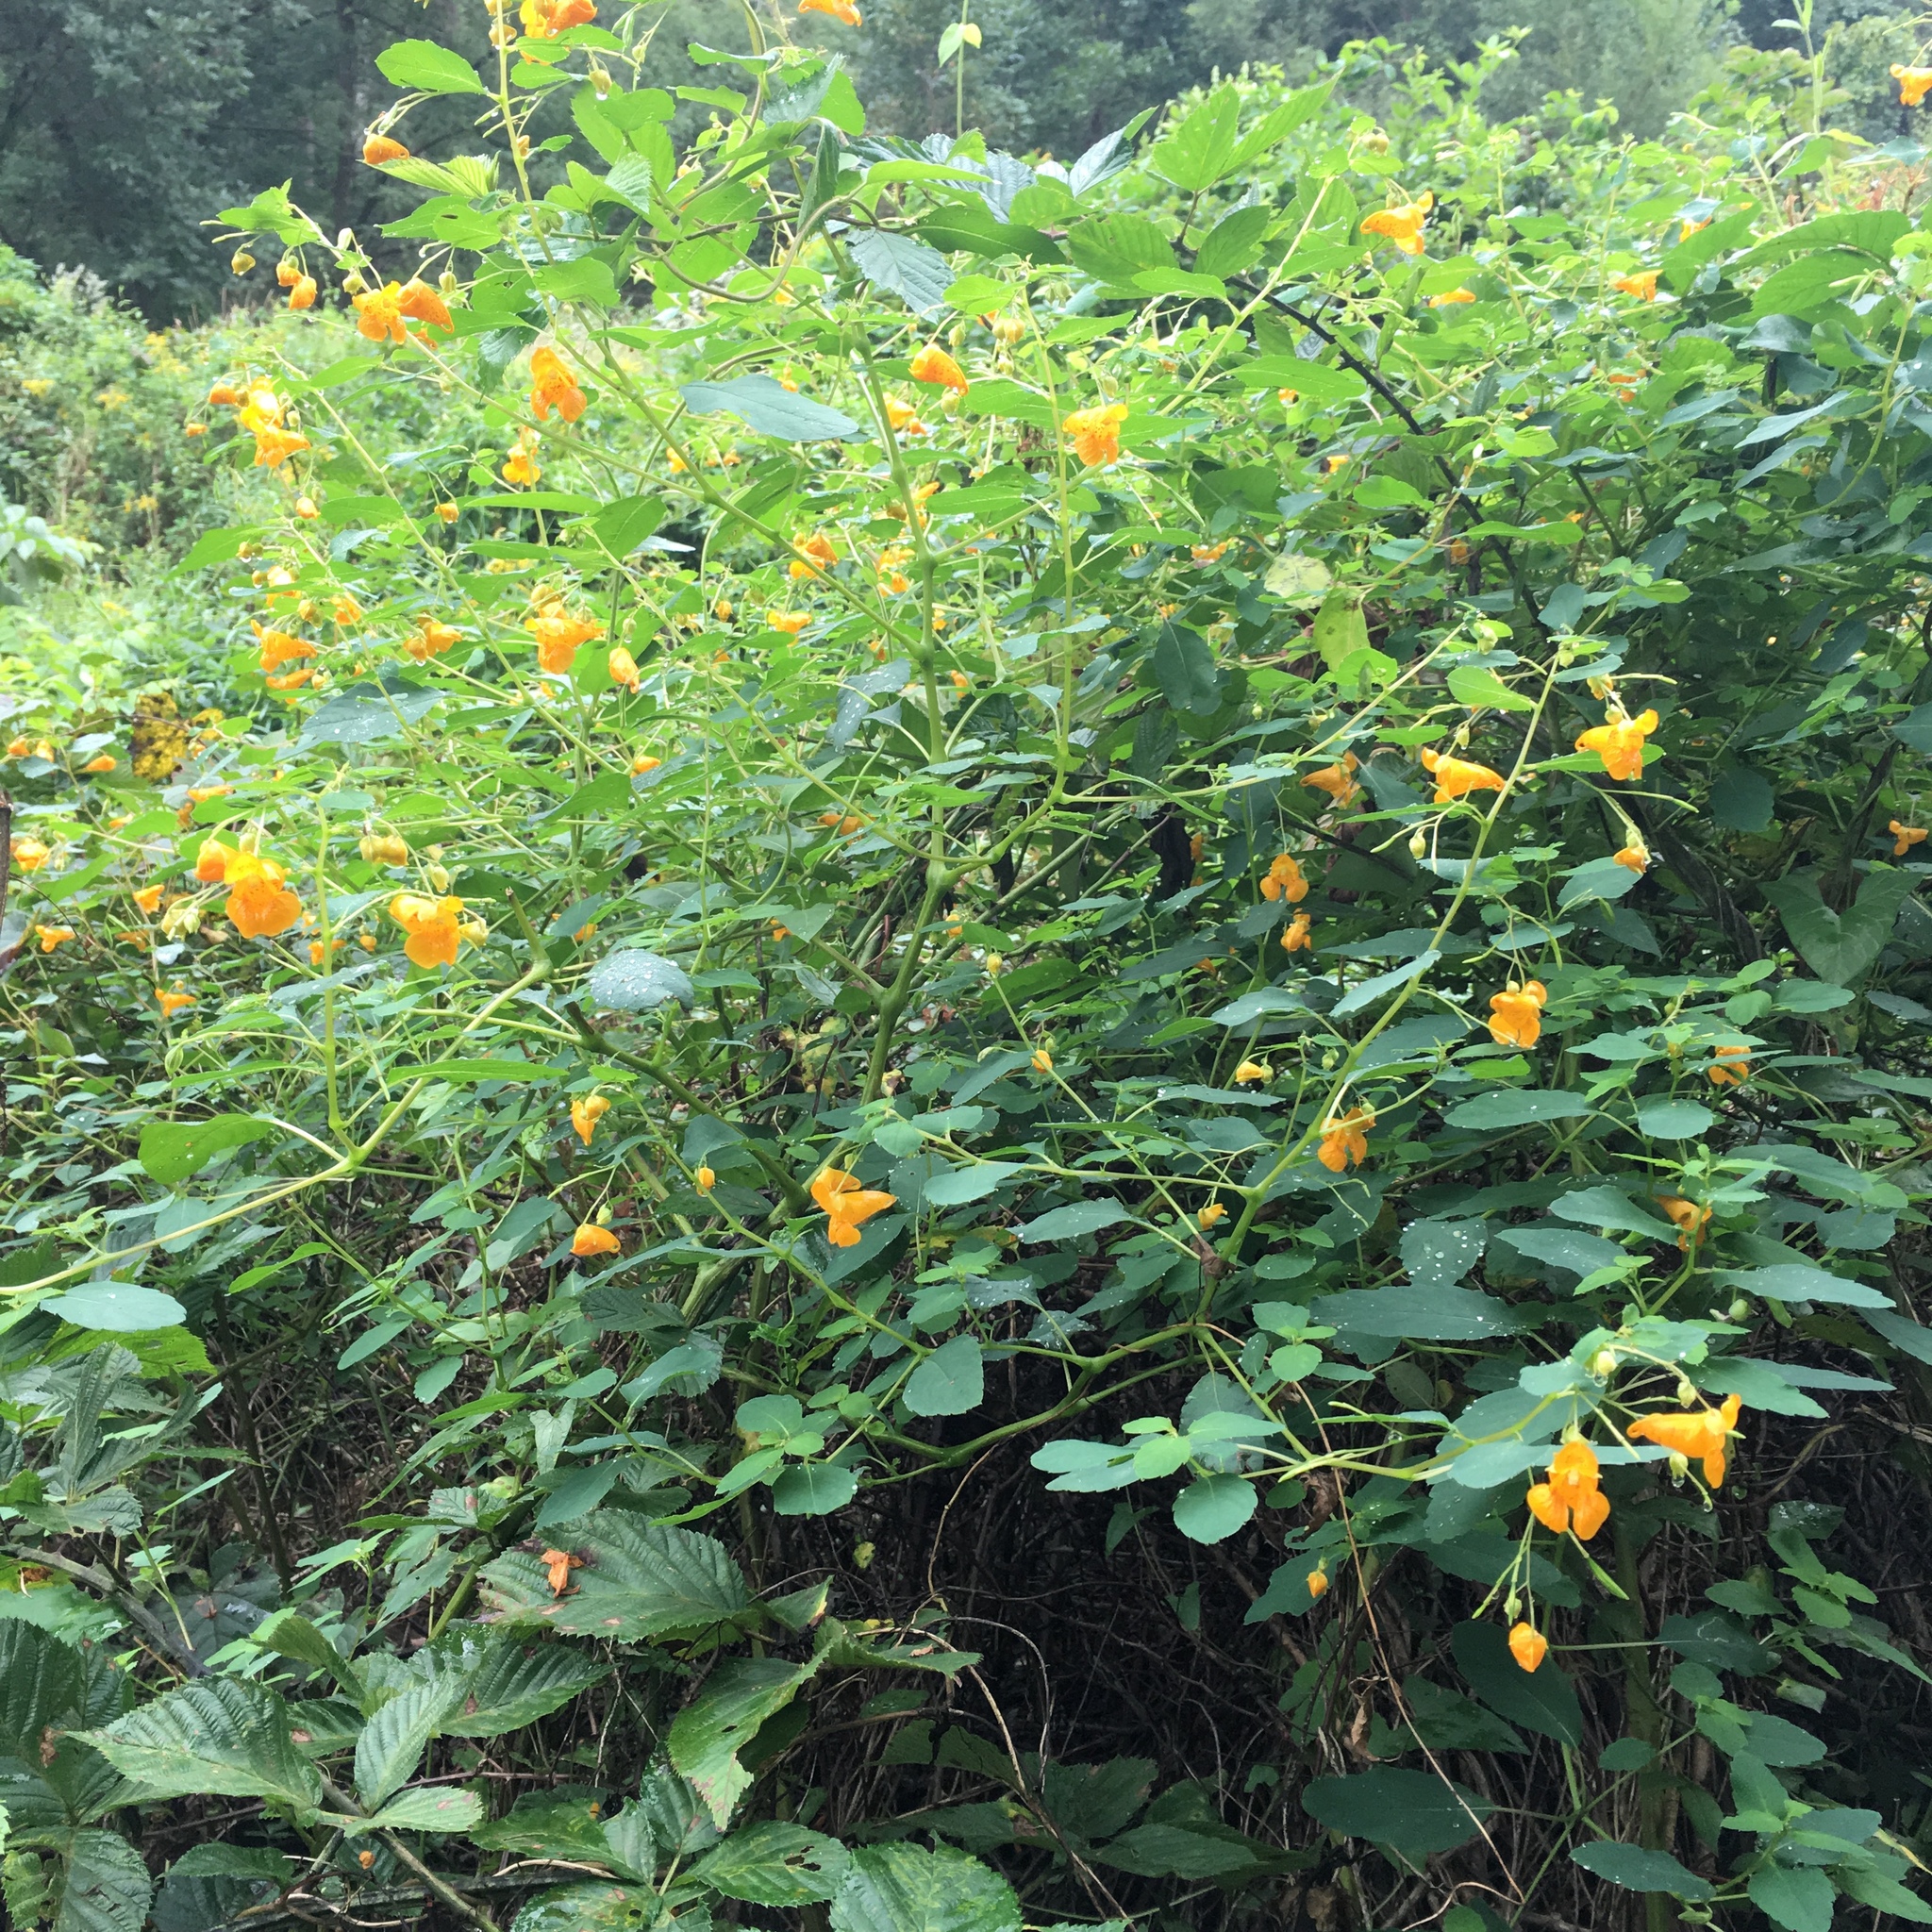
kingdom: Plantae
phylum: Tracheophyta
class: Magnoliopsida
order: Ericales
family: Balsaminaceae
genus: Impatiens
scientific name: Impatiens capensis
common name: Orange balsam
